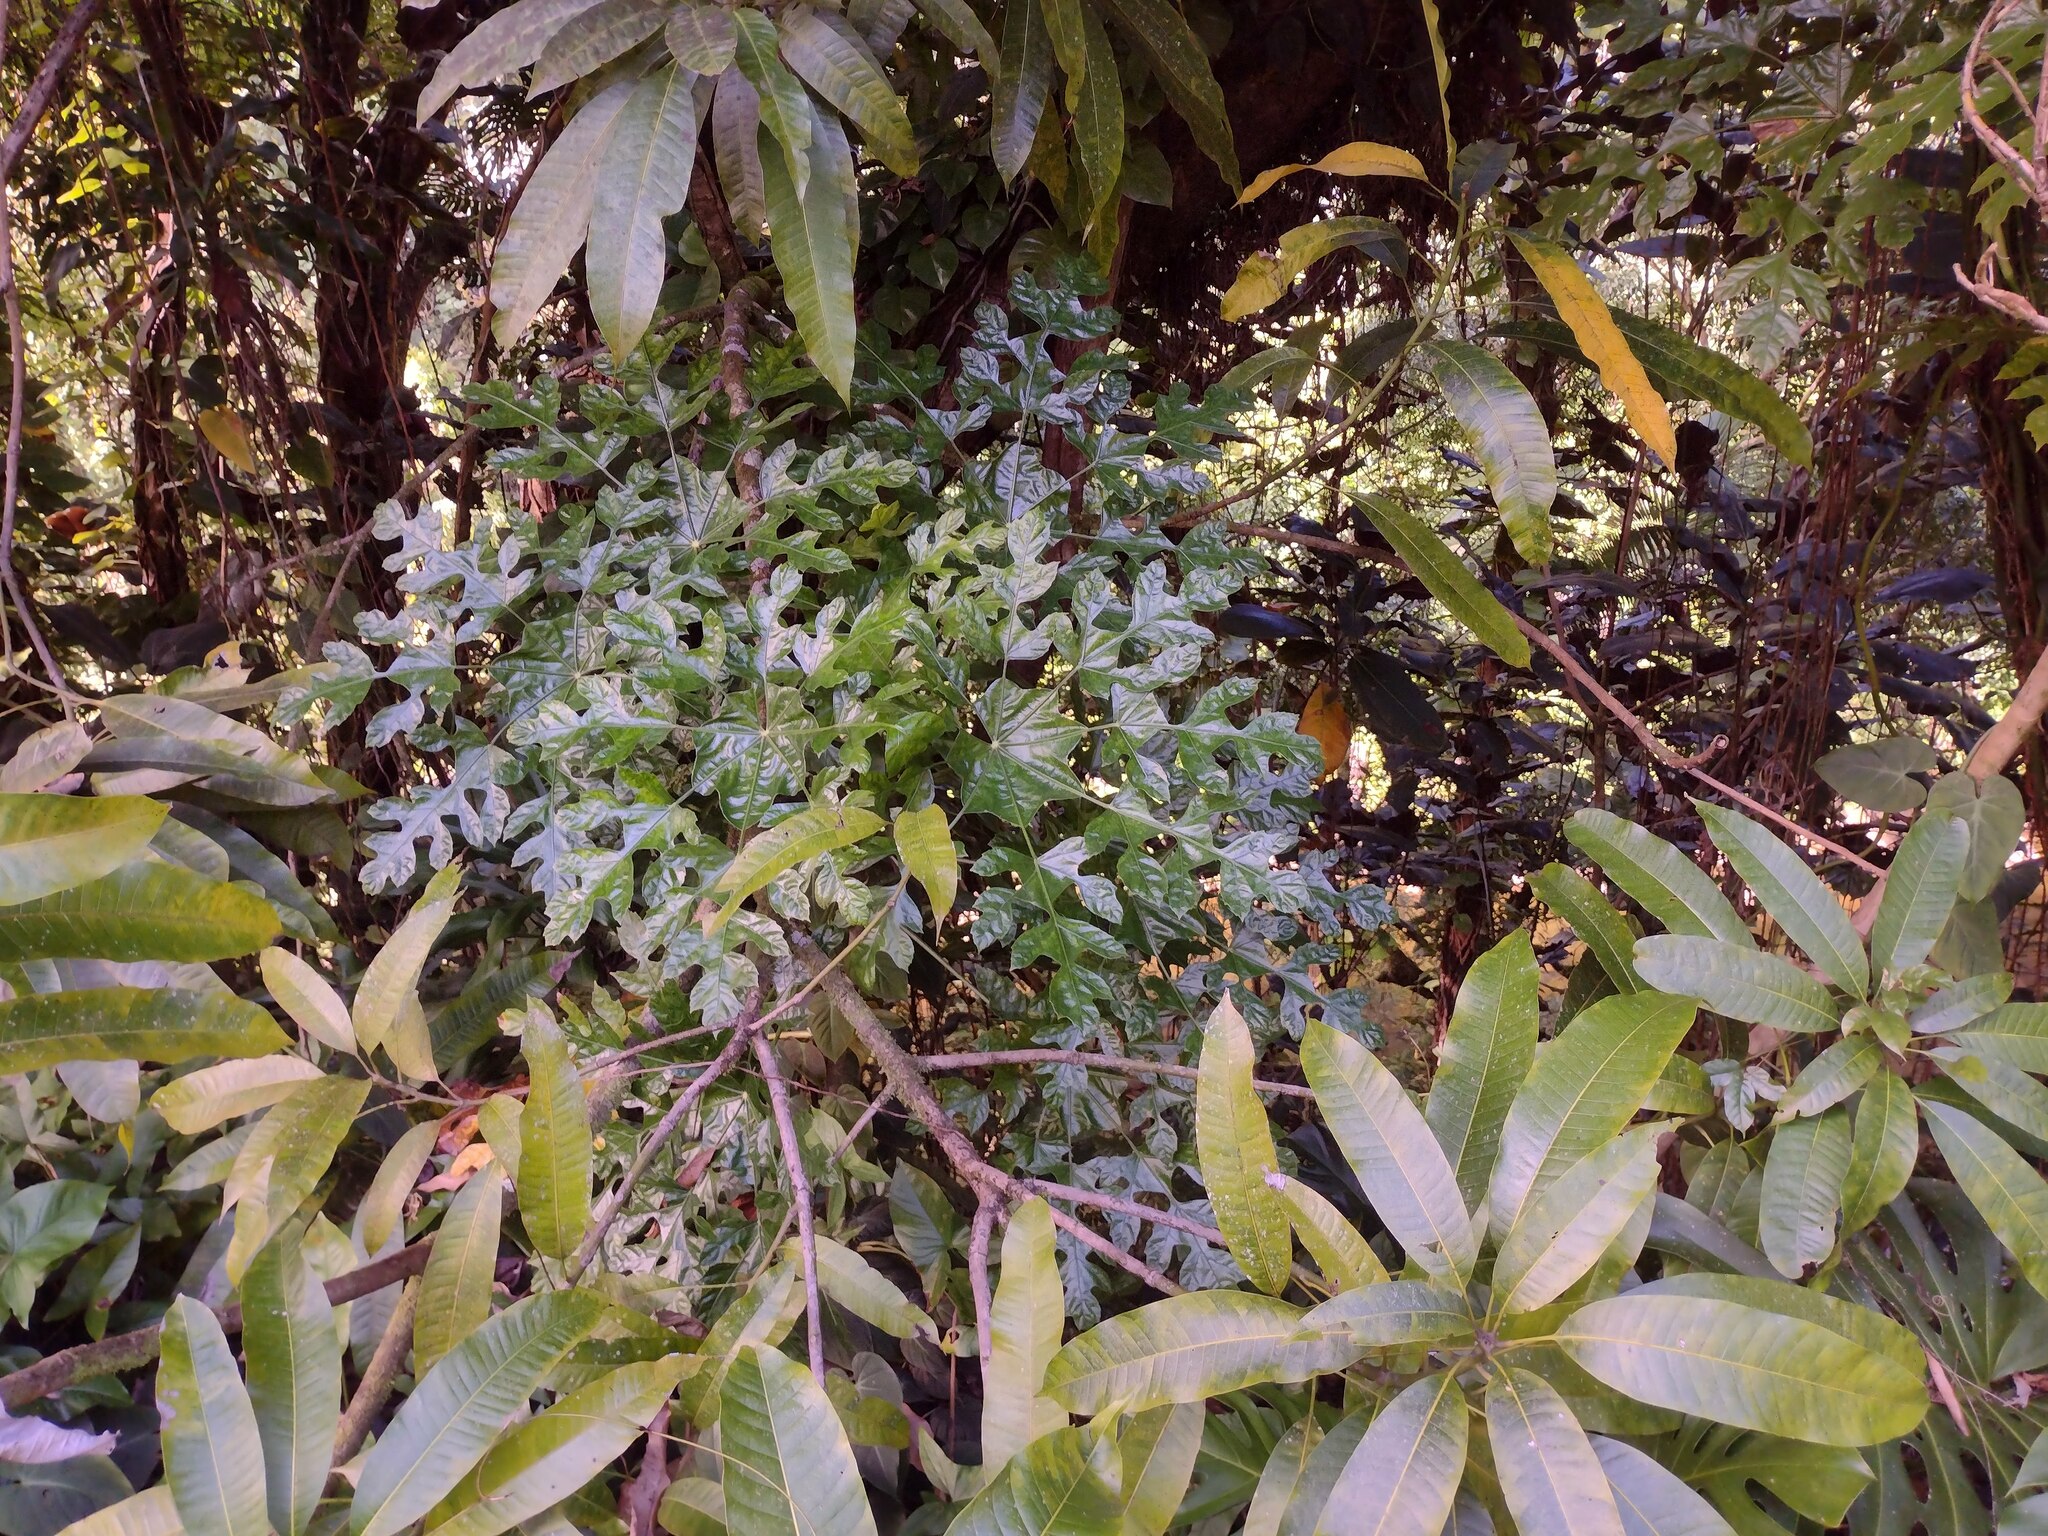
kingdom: Plantae
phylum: Tracheophyta
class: Magnoliopsida
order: Apiales
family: Araliaceae
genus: Trevesia
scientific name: Trevesia palmata
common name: Snowflakeplant
